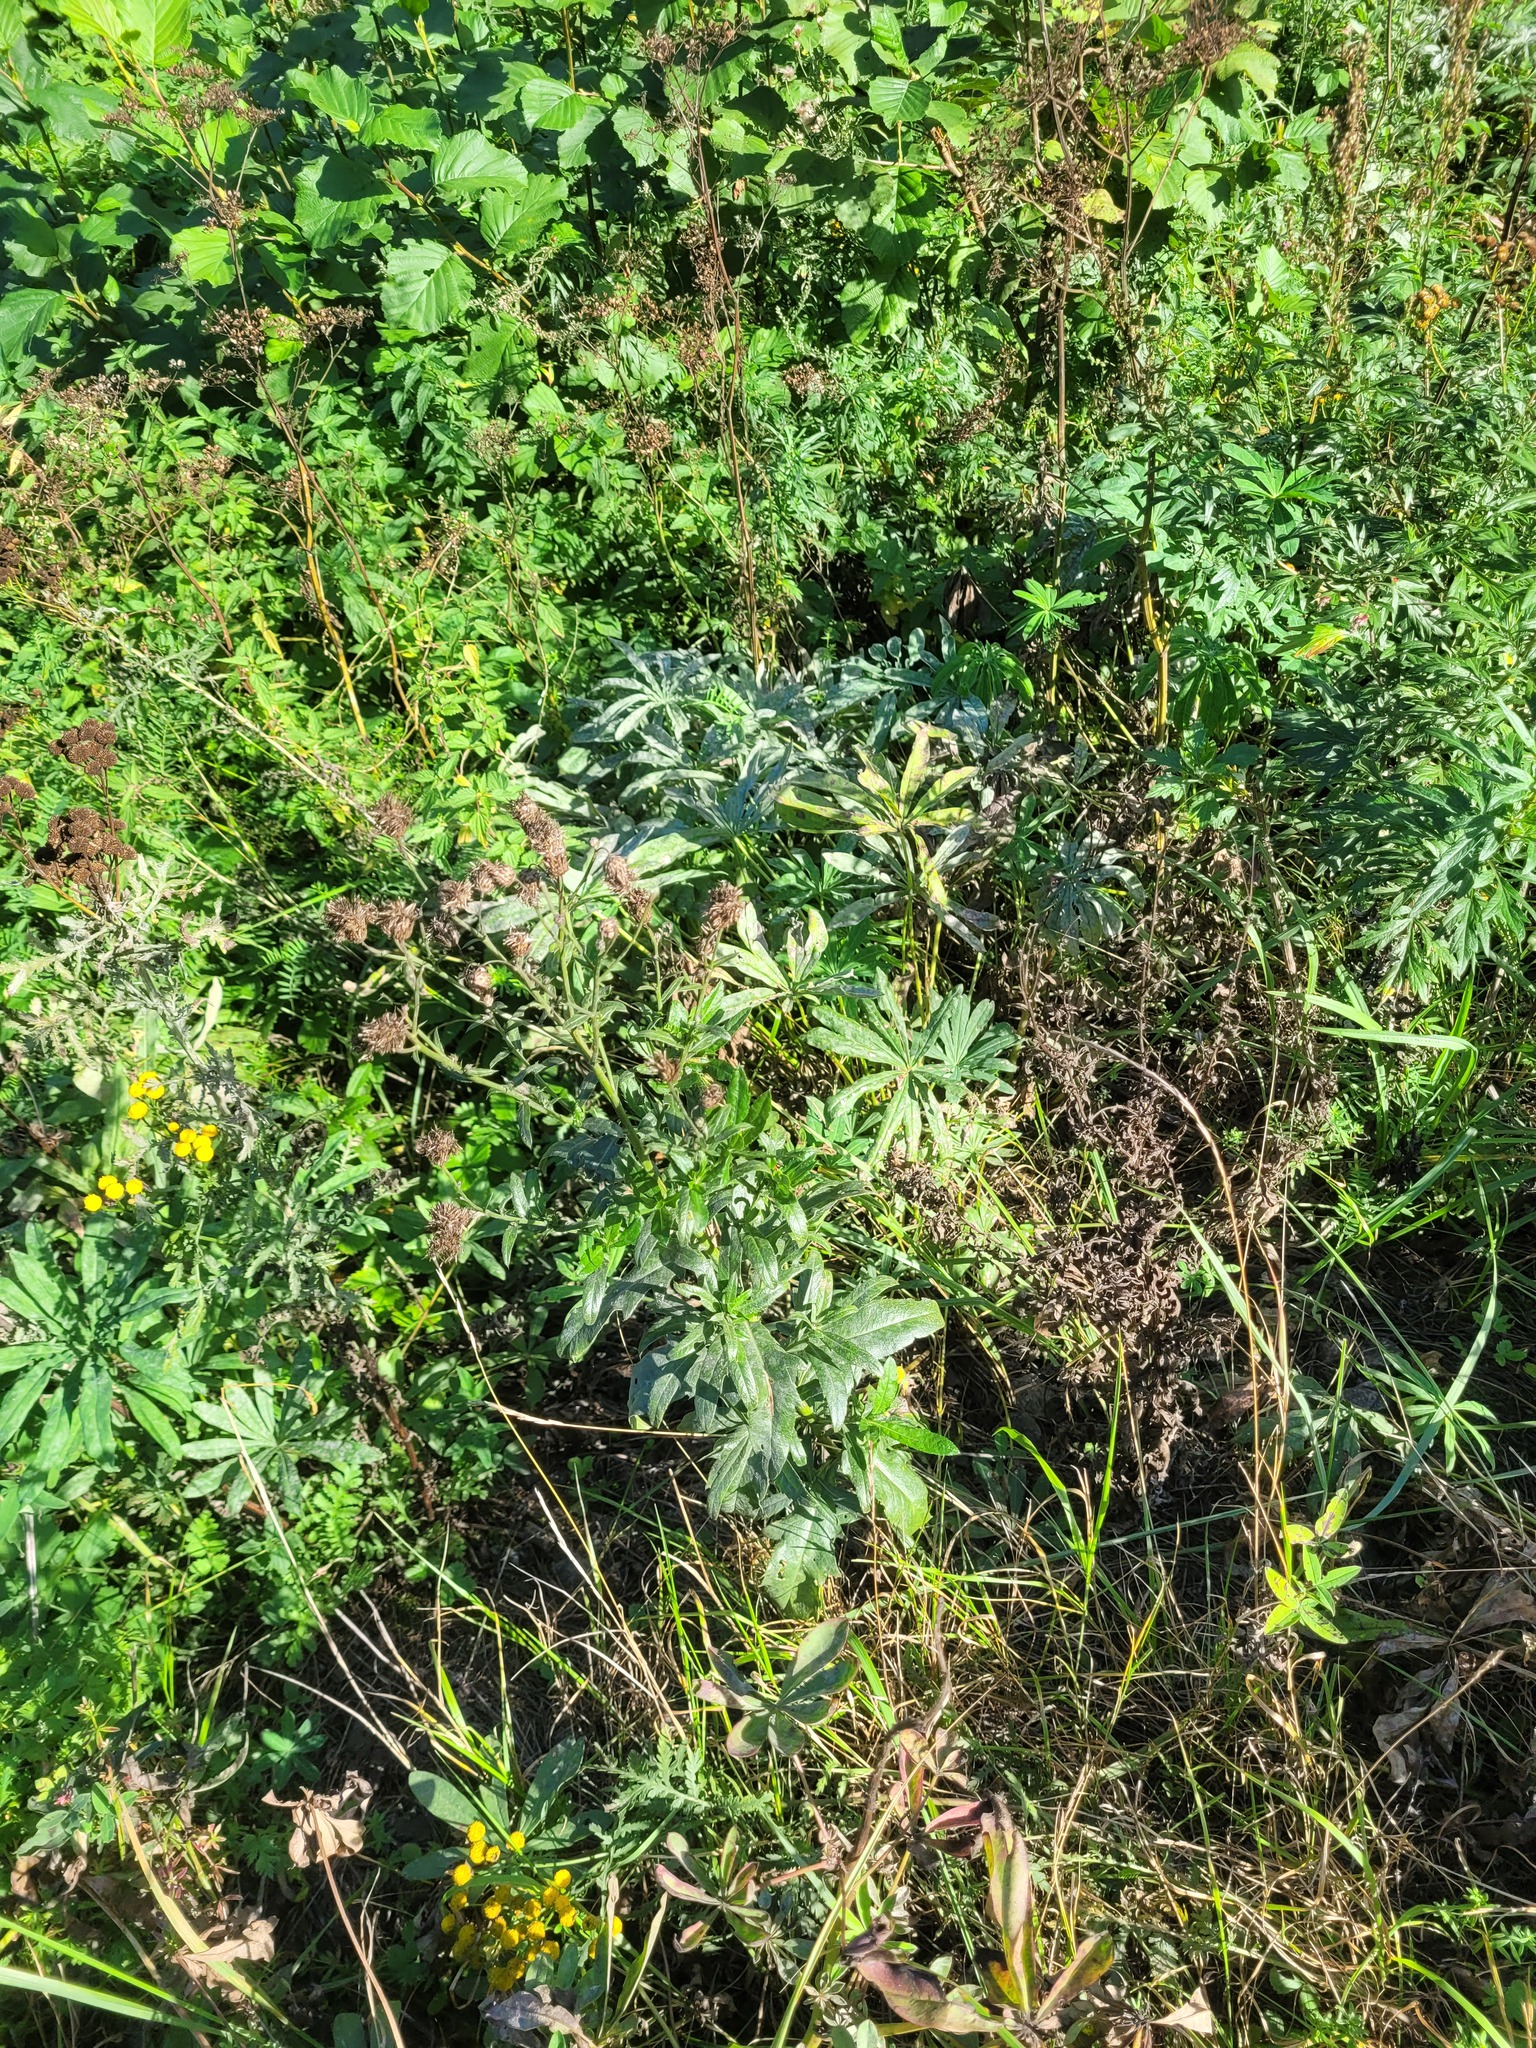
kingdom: Plantae
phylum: Tracheophyta
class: Magnoliopsida
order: Asterales
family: Asteraceae
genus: Cirsium
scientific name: Cirsium arvense
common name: Creeping thistle
